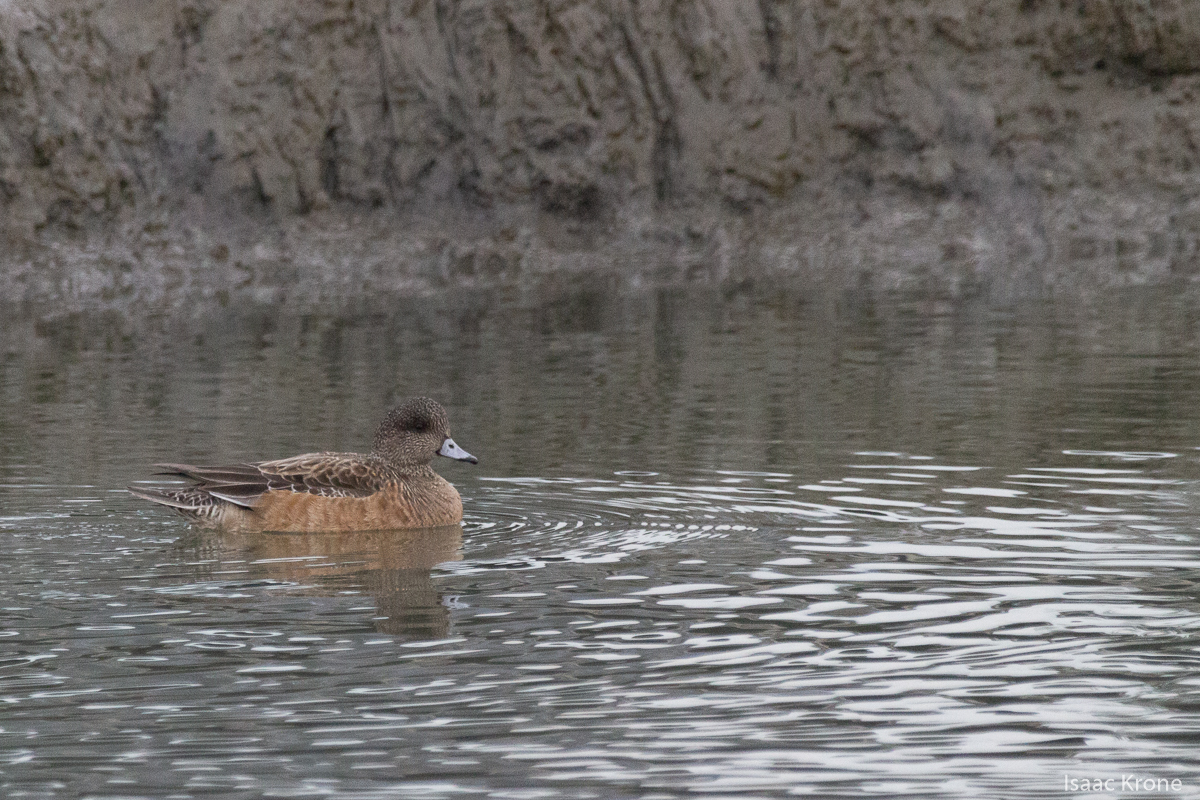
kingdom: Animalia
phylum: Chordata
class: Aves
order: Anseriformes
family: Anatidae
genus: Mareca
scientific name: Mareca americana
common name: American wigeon
